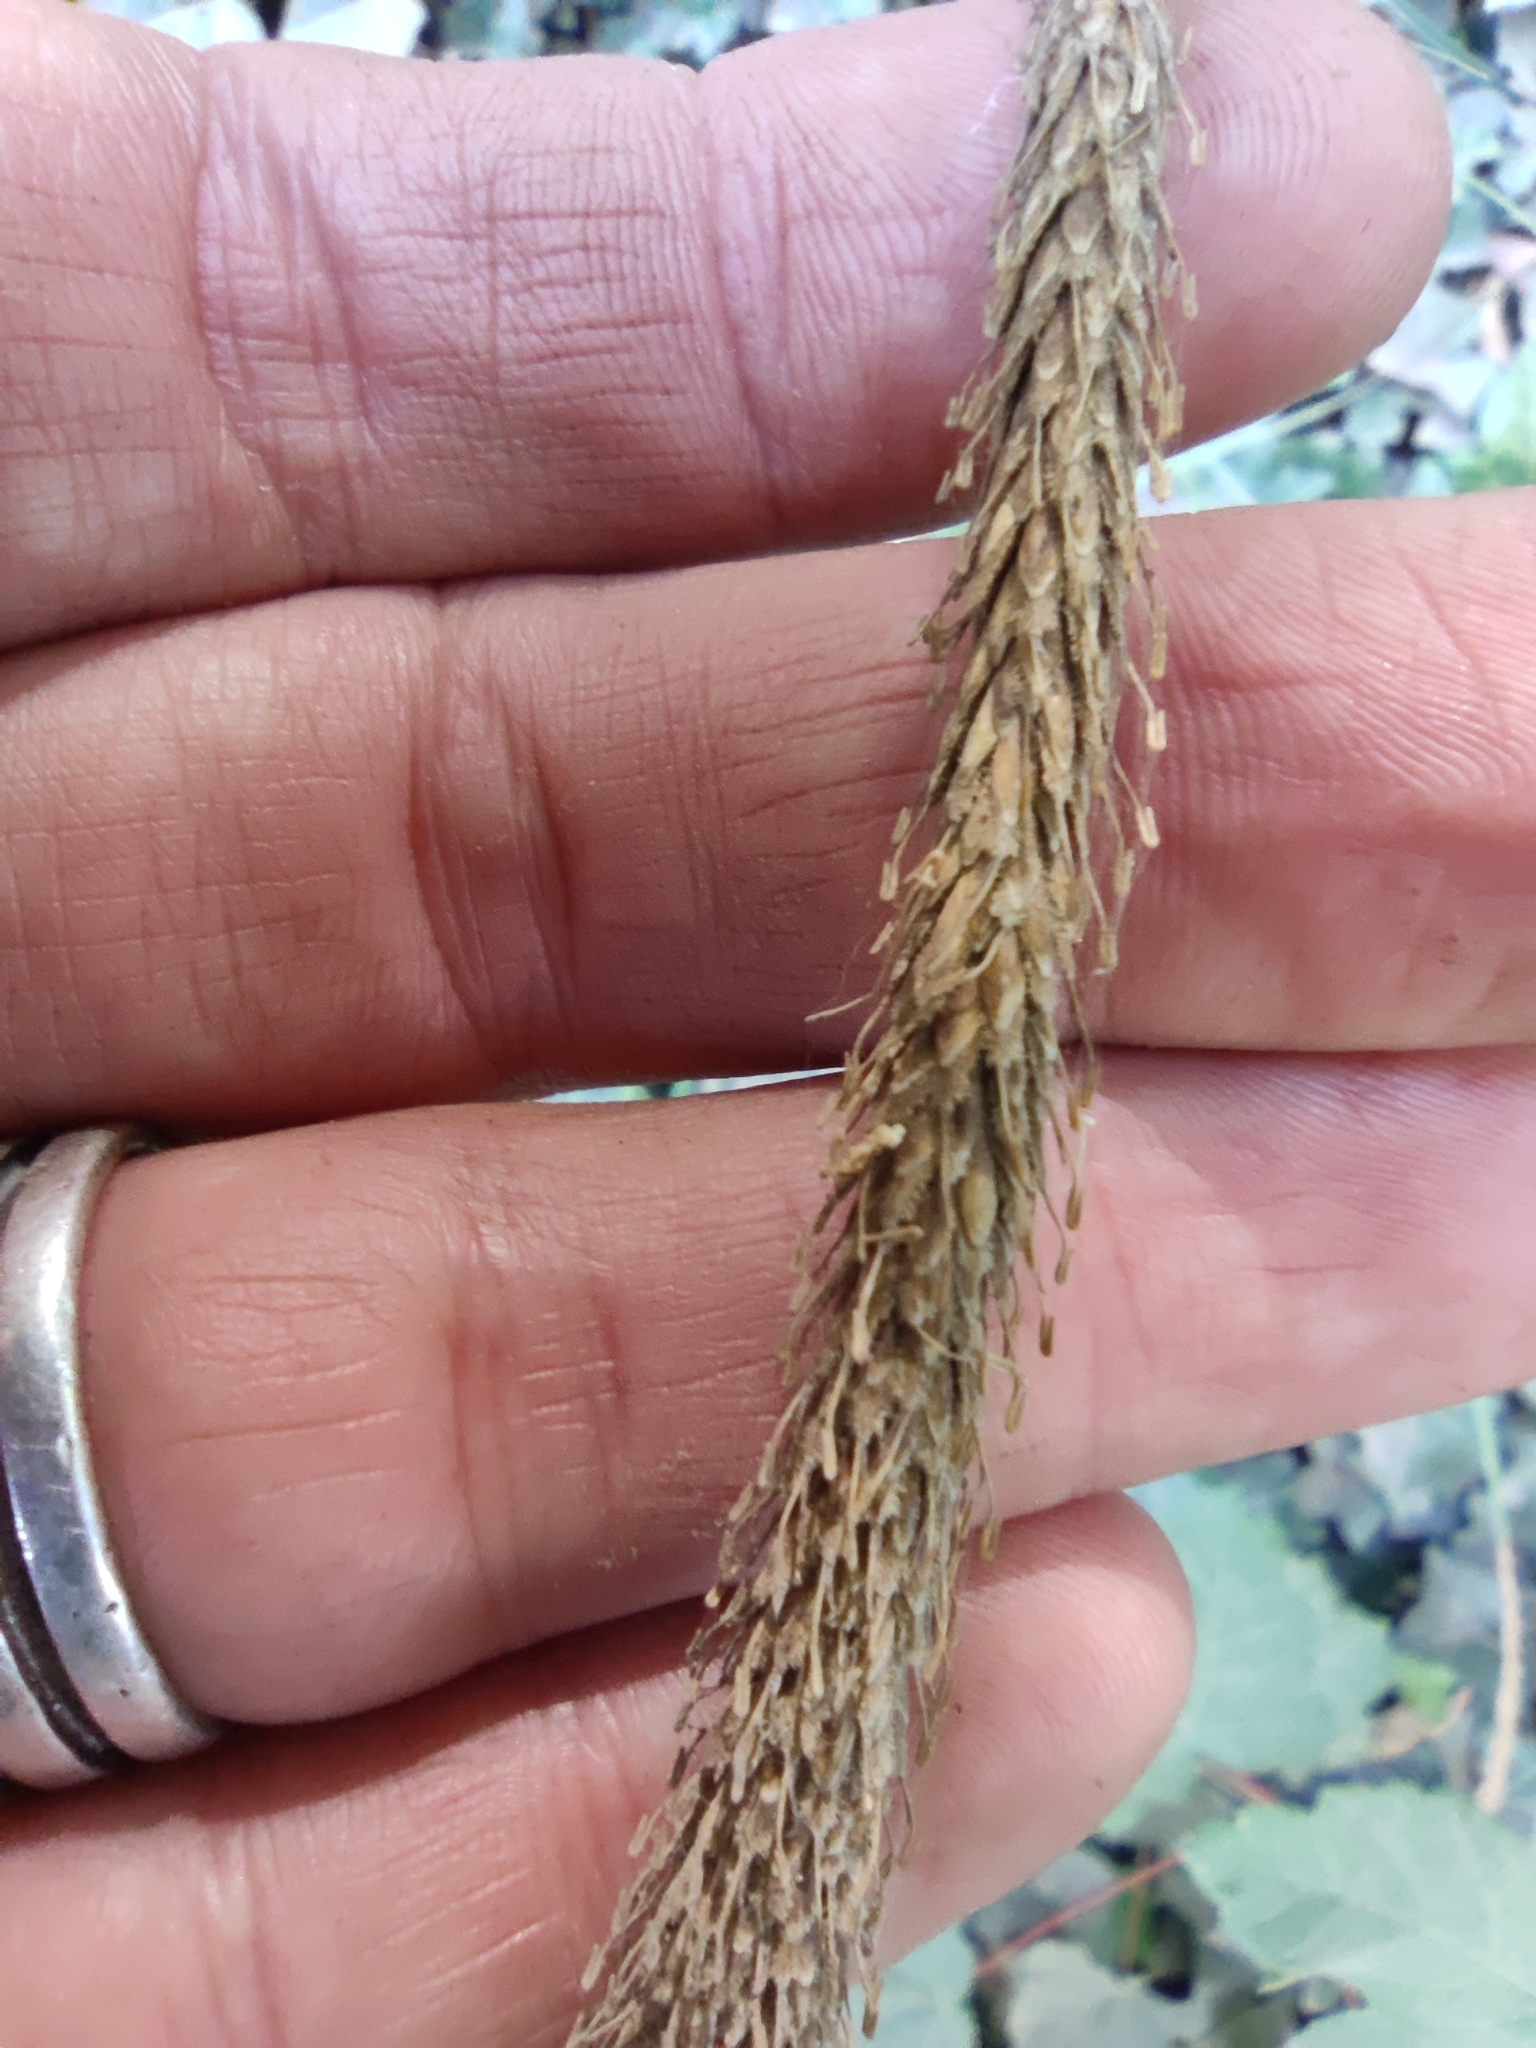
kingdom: Plantae
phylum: Tracheophyta
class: Liliopsida
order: Poales
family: Cyperaceae
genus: Carex
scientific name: Carex phleoides
